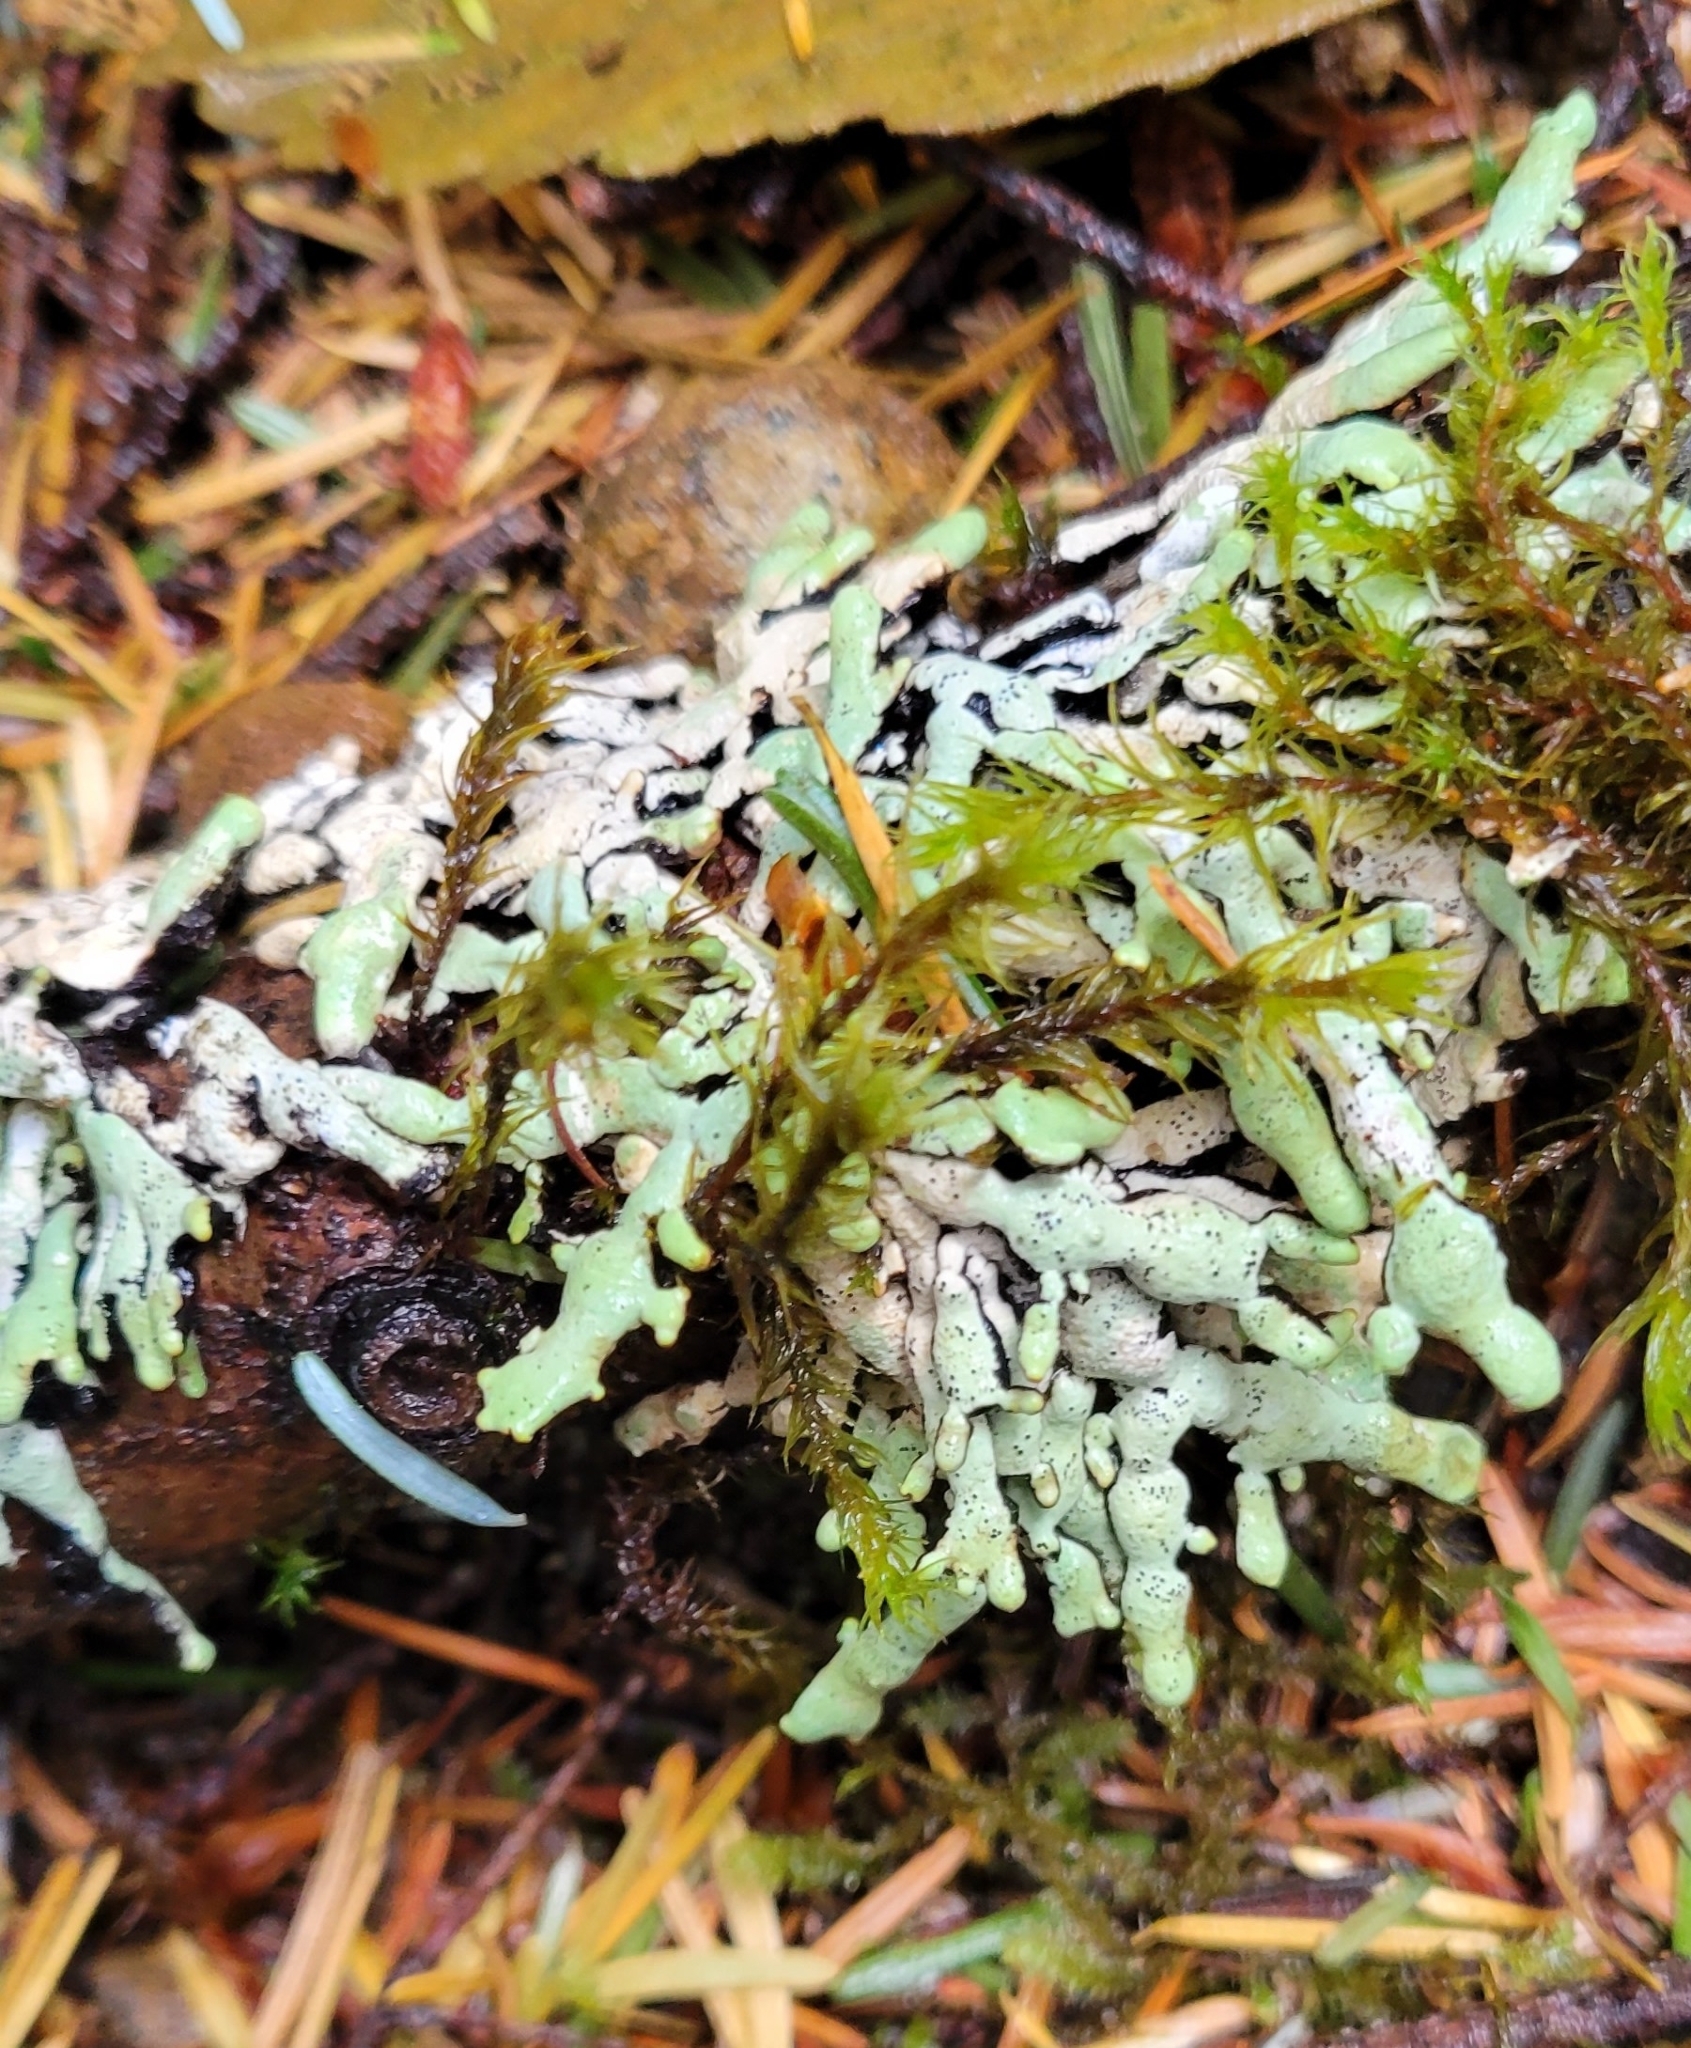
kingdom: Fungi
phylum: Ascomycota
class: Lecanoromycetes
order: Lecanorales
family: Parmeliaceae
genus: Hypogymnia
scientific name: Hypogymnia enteromorpha
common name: Beaded tube lichen
